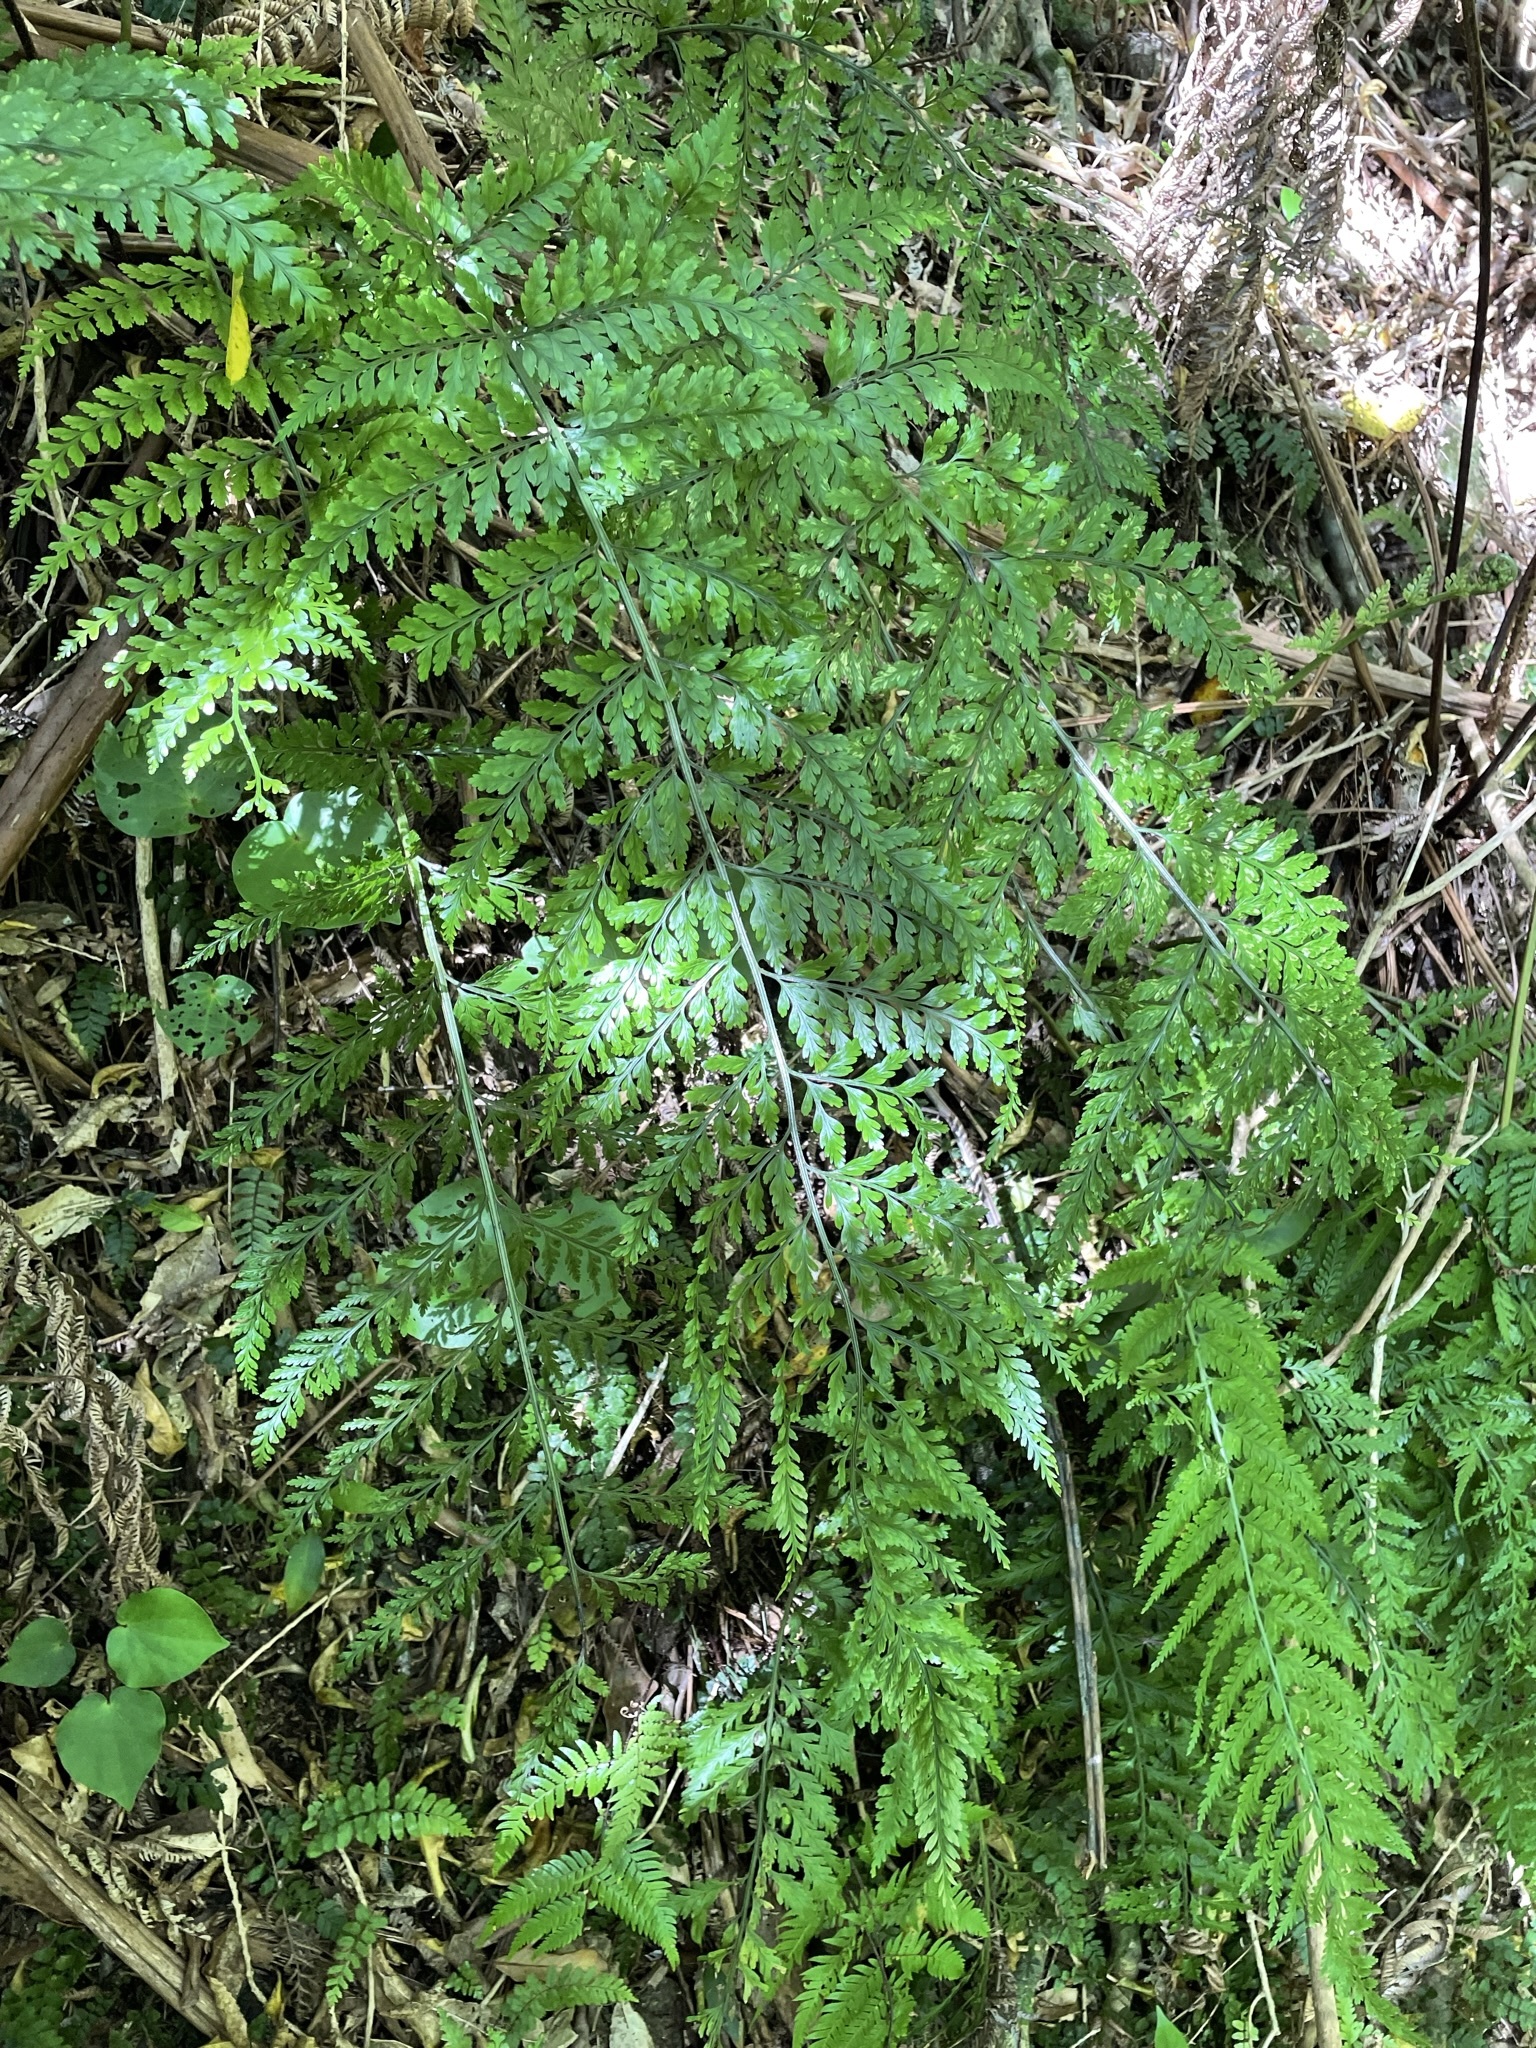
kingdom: Plantae
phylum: Tracheophyta
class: Polypodiopsida
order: Polypodiales
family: Aspleniaceae
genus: Asplenium
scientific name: Asplenium
